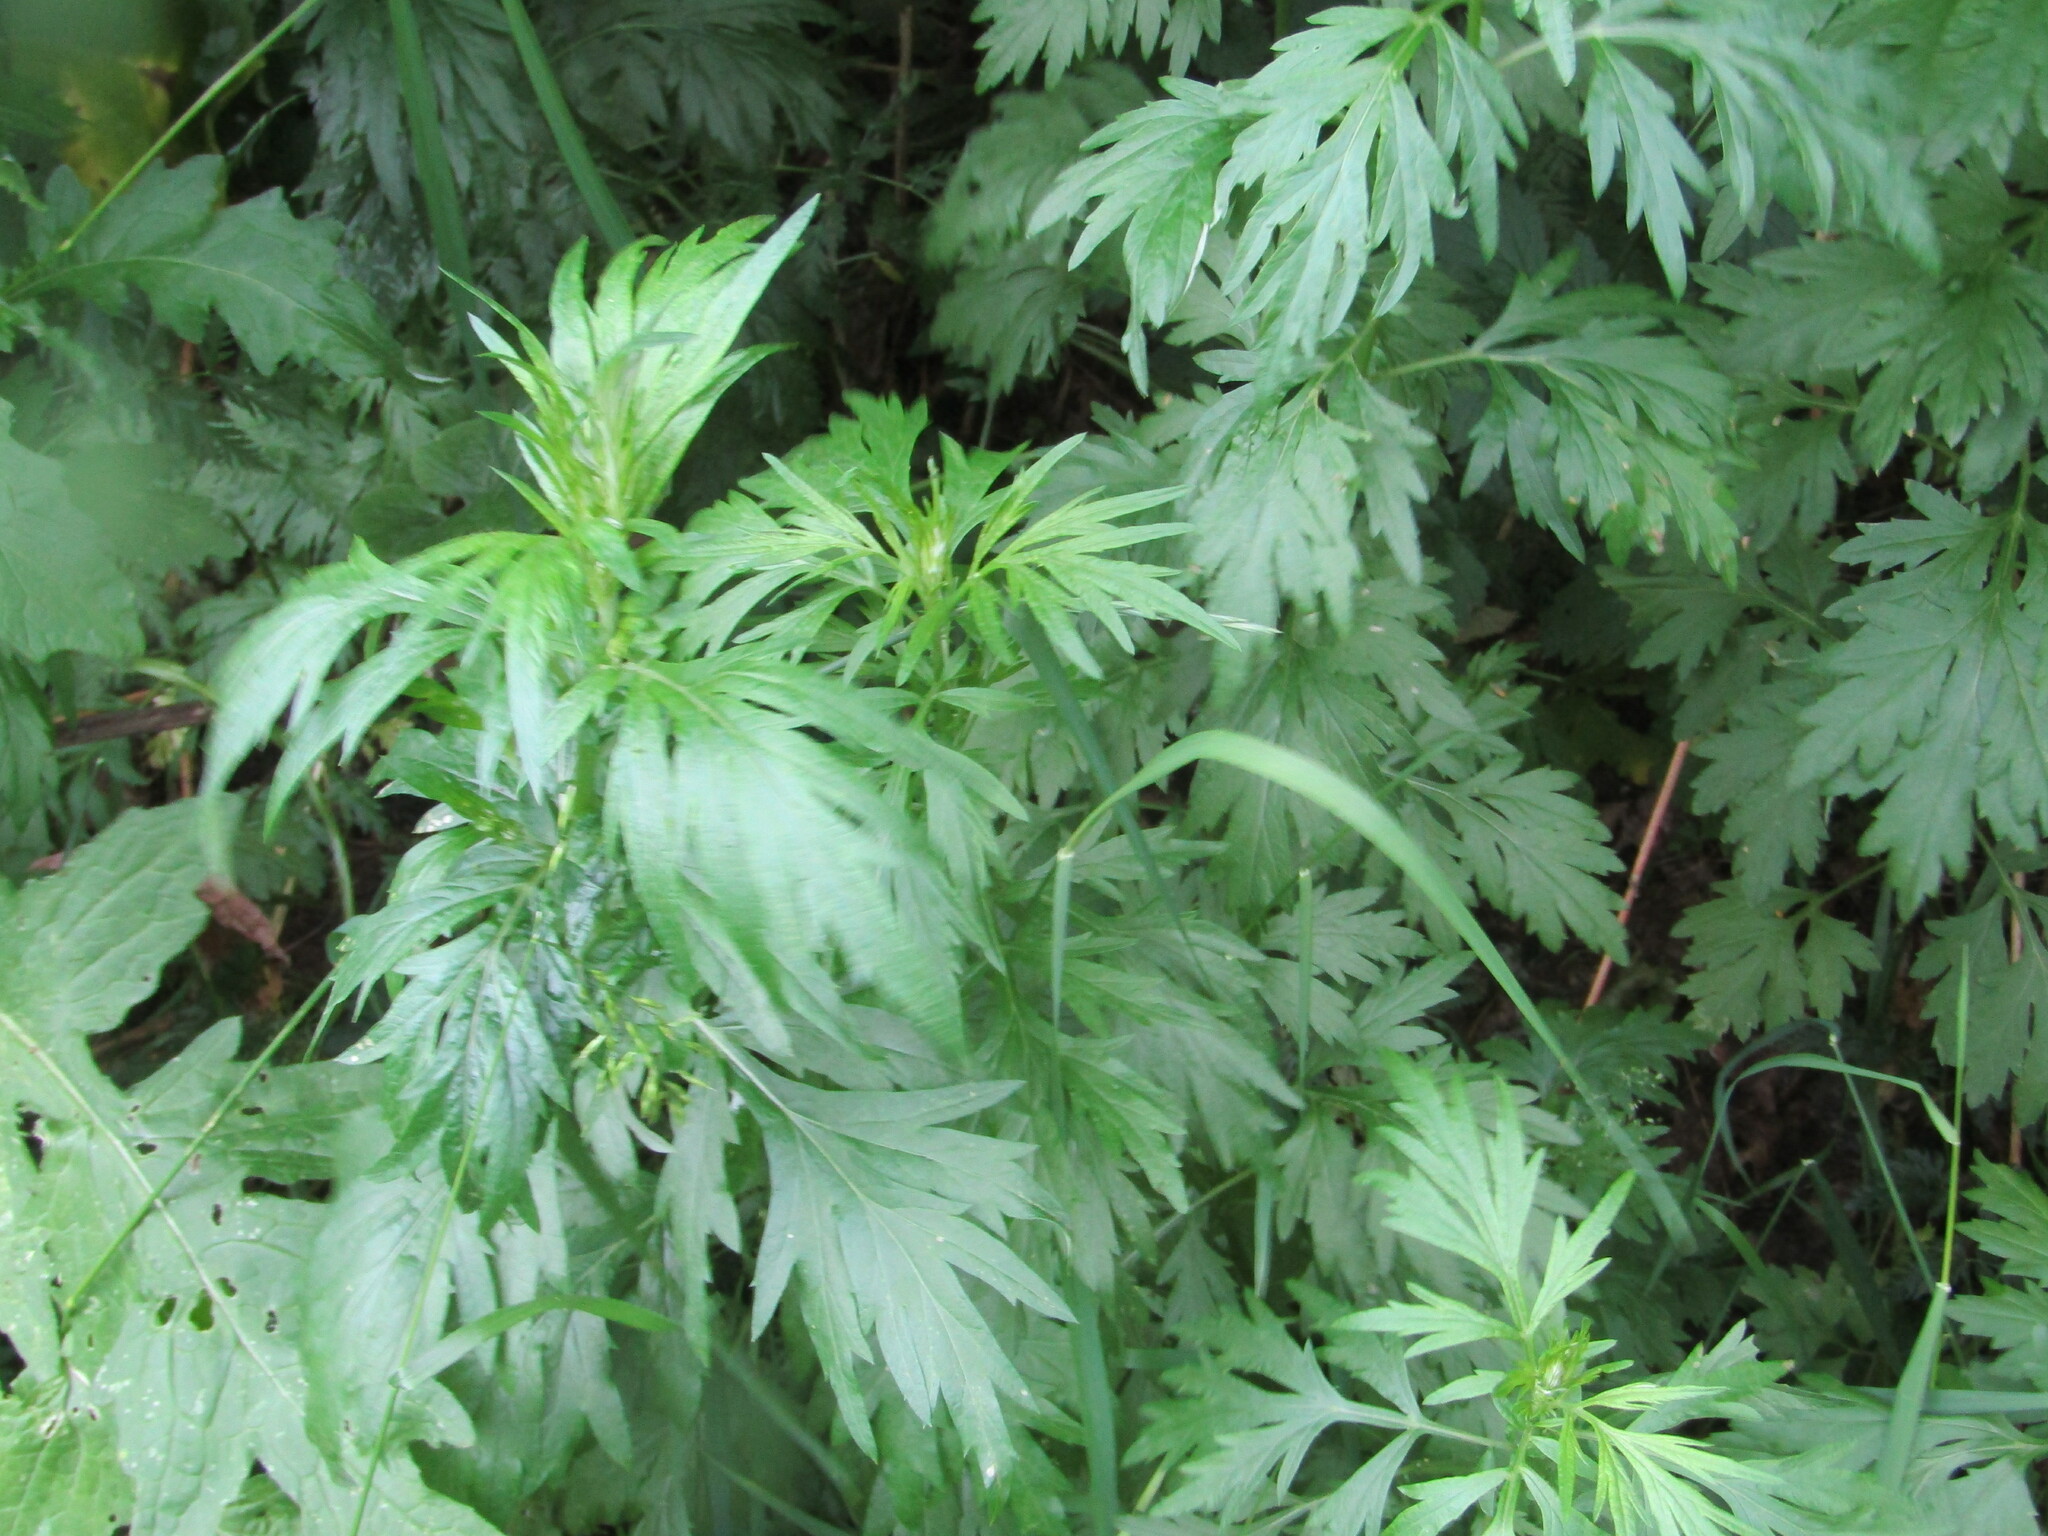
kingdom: Plantae
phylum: Tracheophyta
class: Magnoliopsida
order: Asterales
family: Asteraceae
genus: Artemisia
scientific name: Artemisia vulgaris
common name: Mugwort
